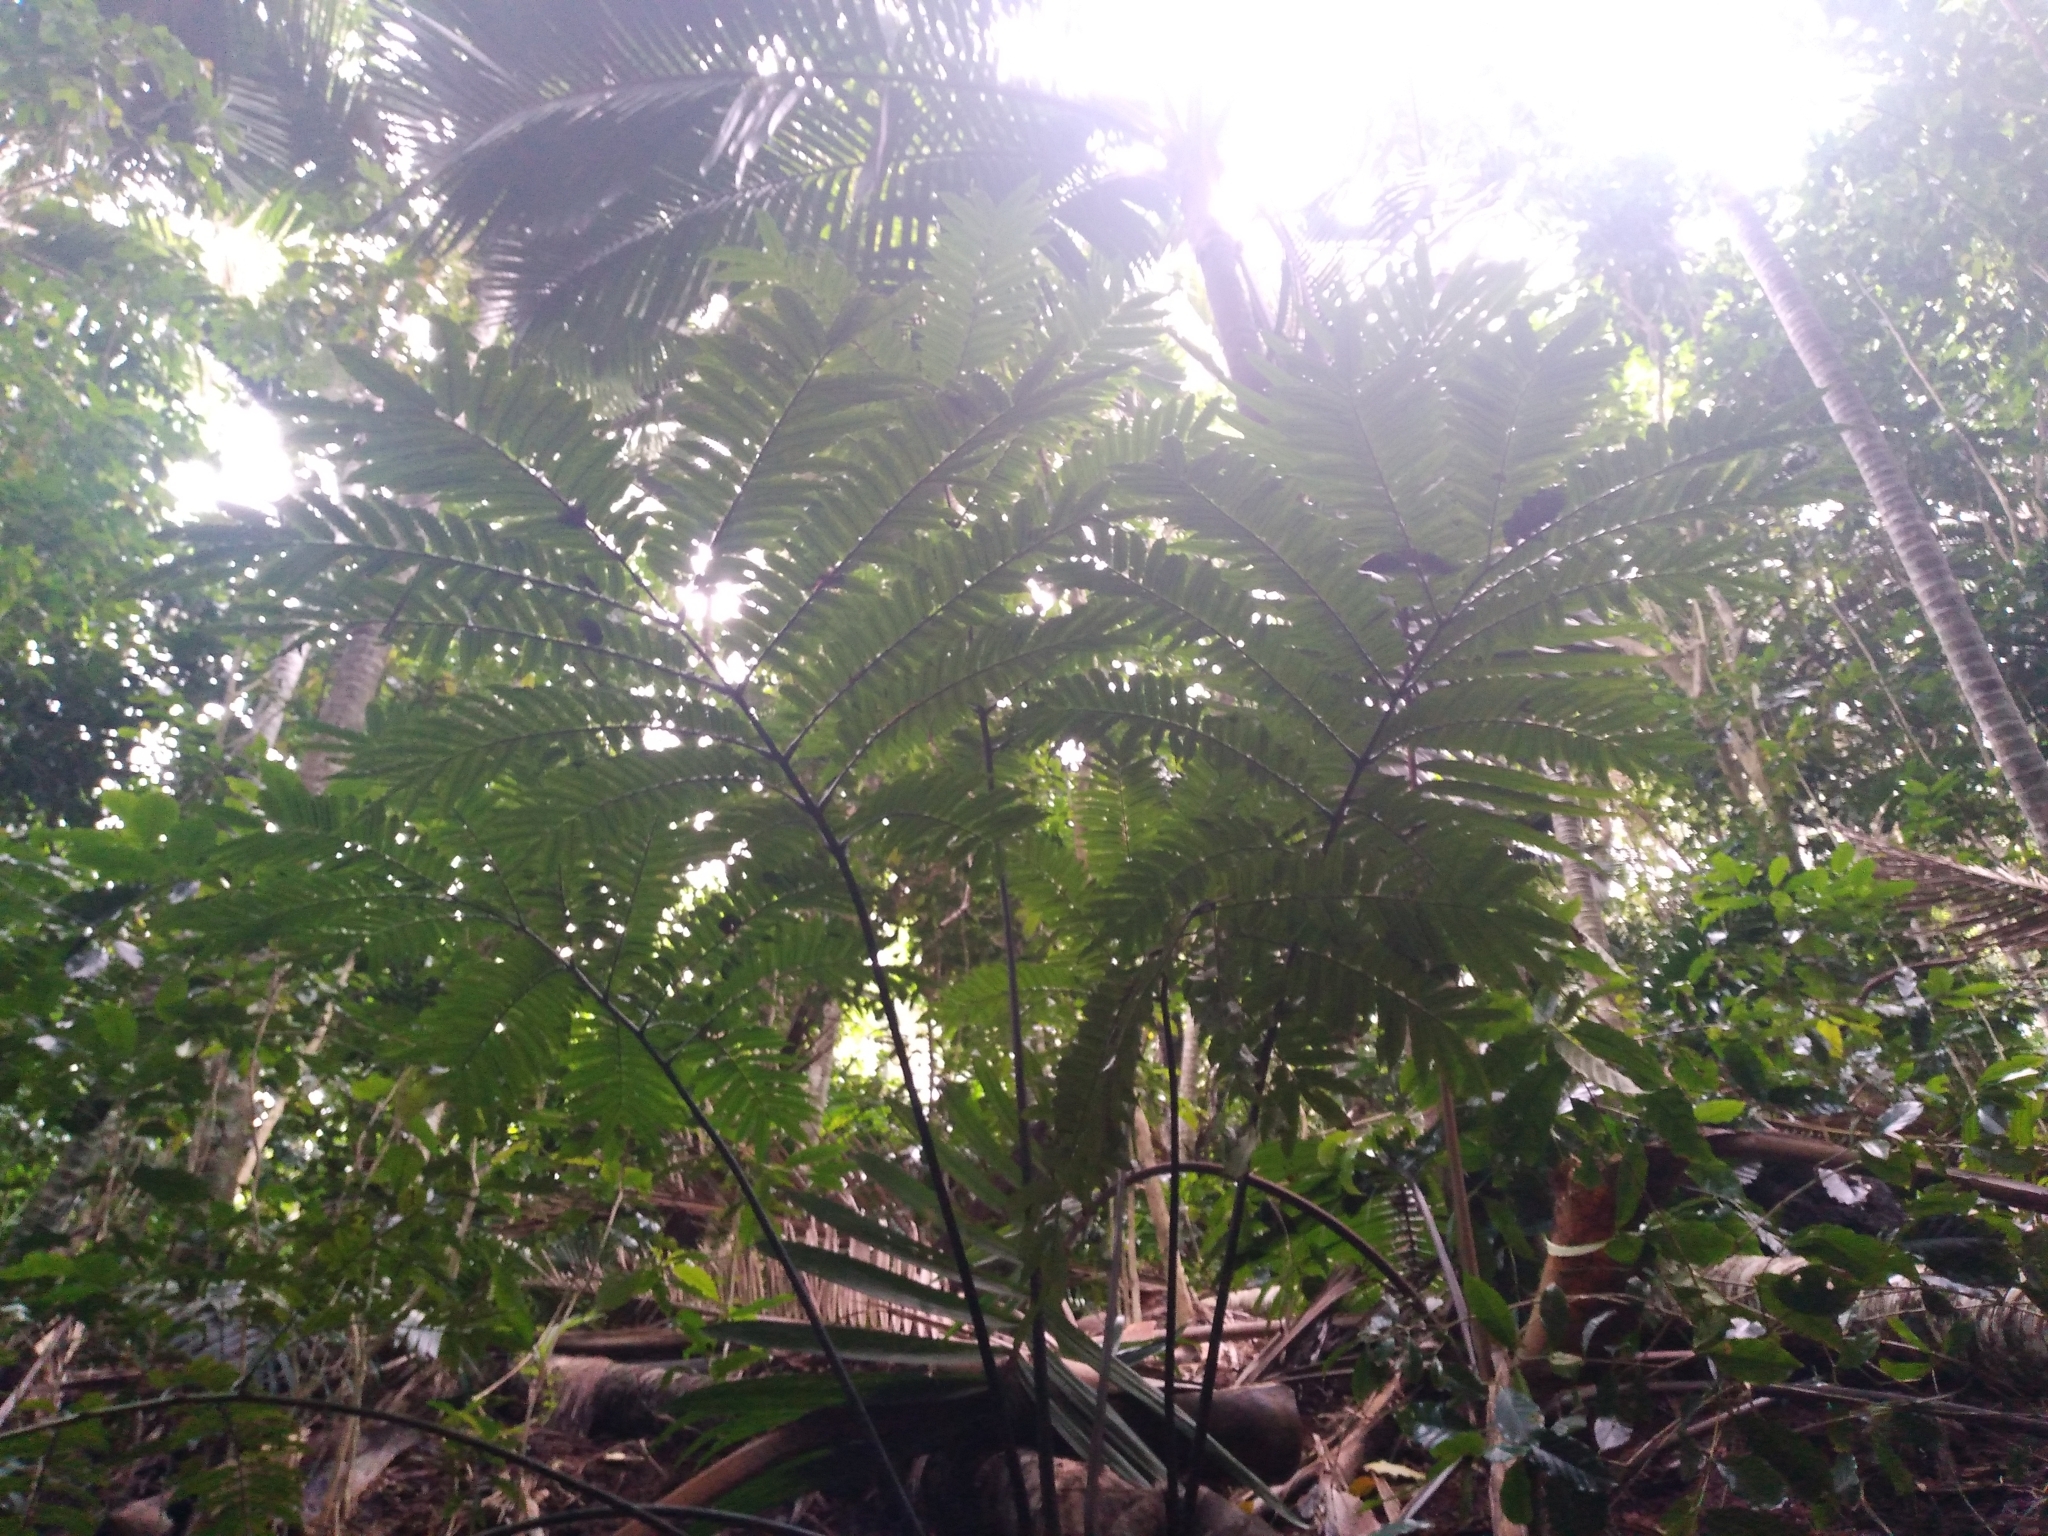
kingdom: Plantae
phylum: Tracheophyta
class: Polypodiopsida
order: Marattiales
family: Marattiaceae
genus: Ptisana
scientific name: Ptisana salicina
